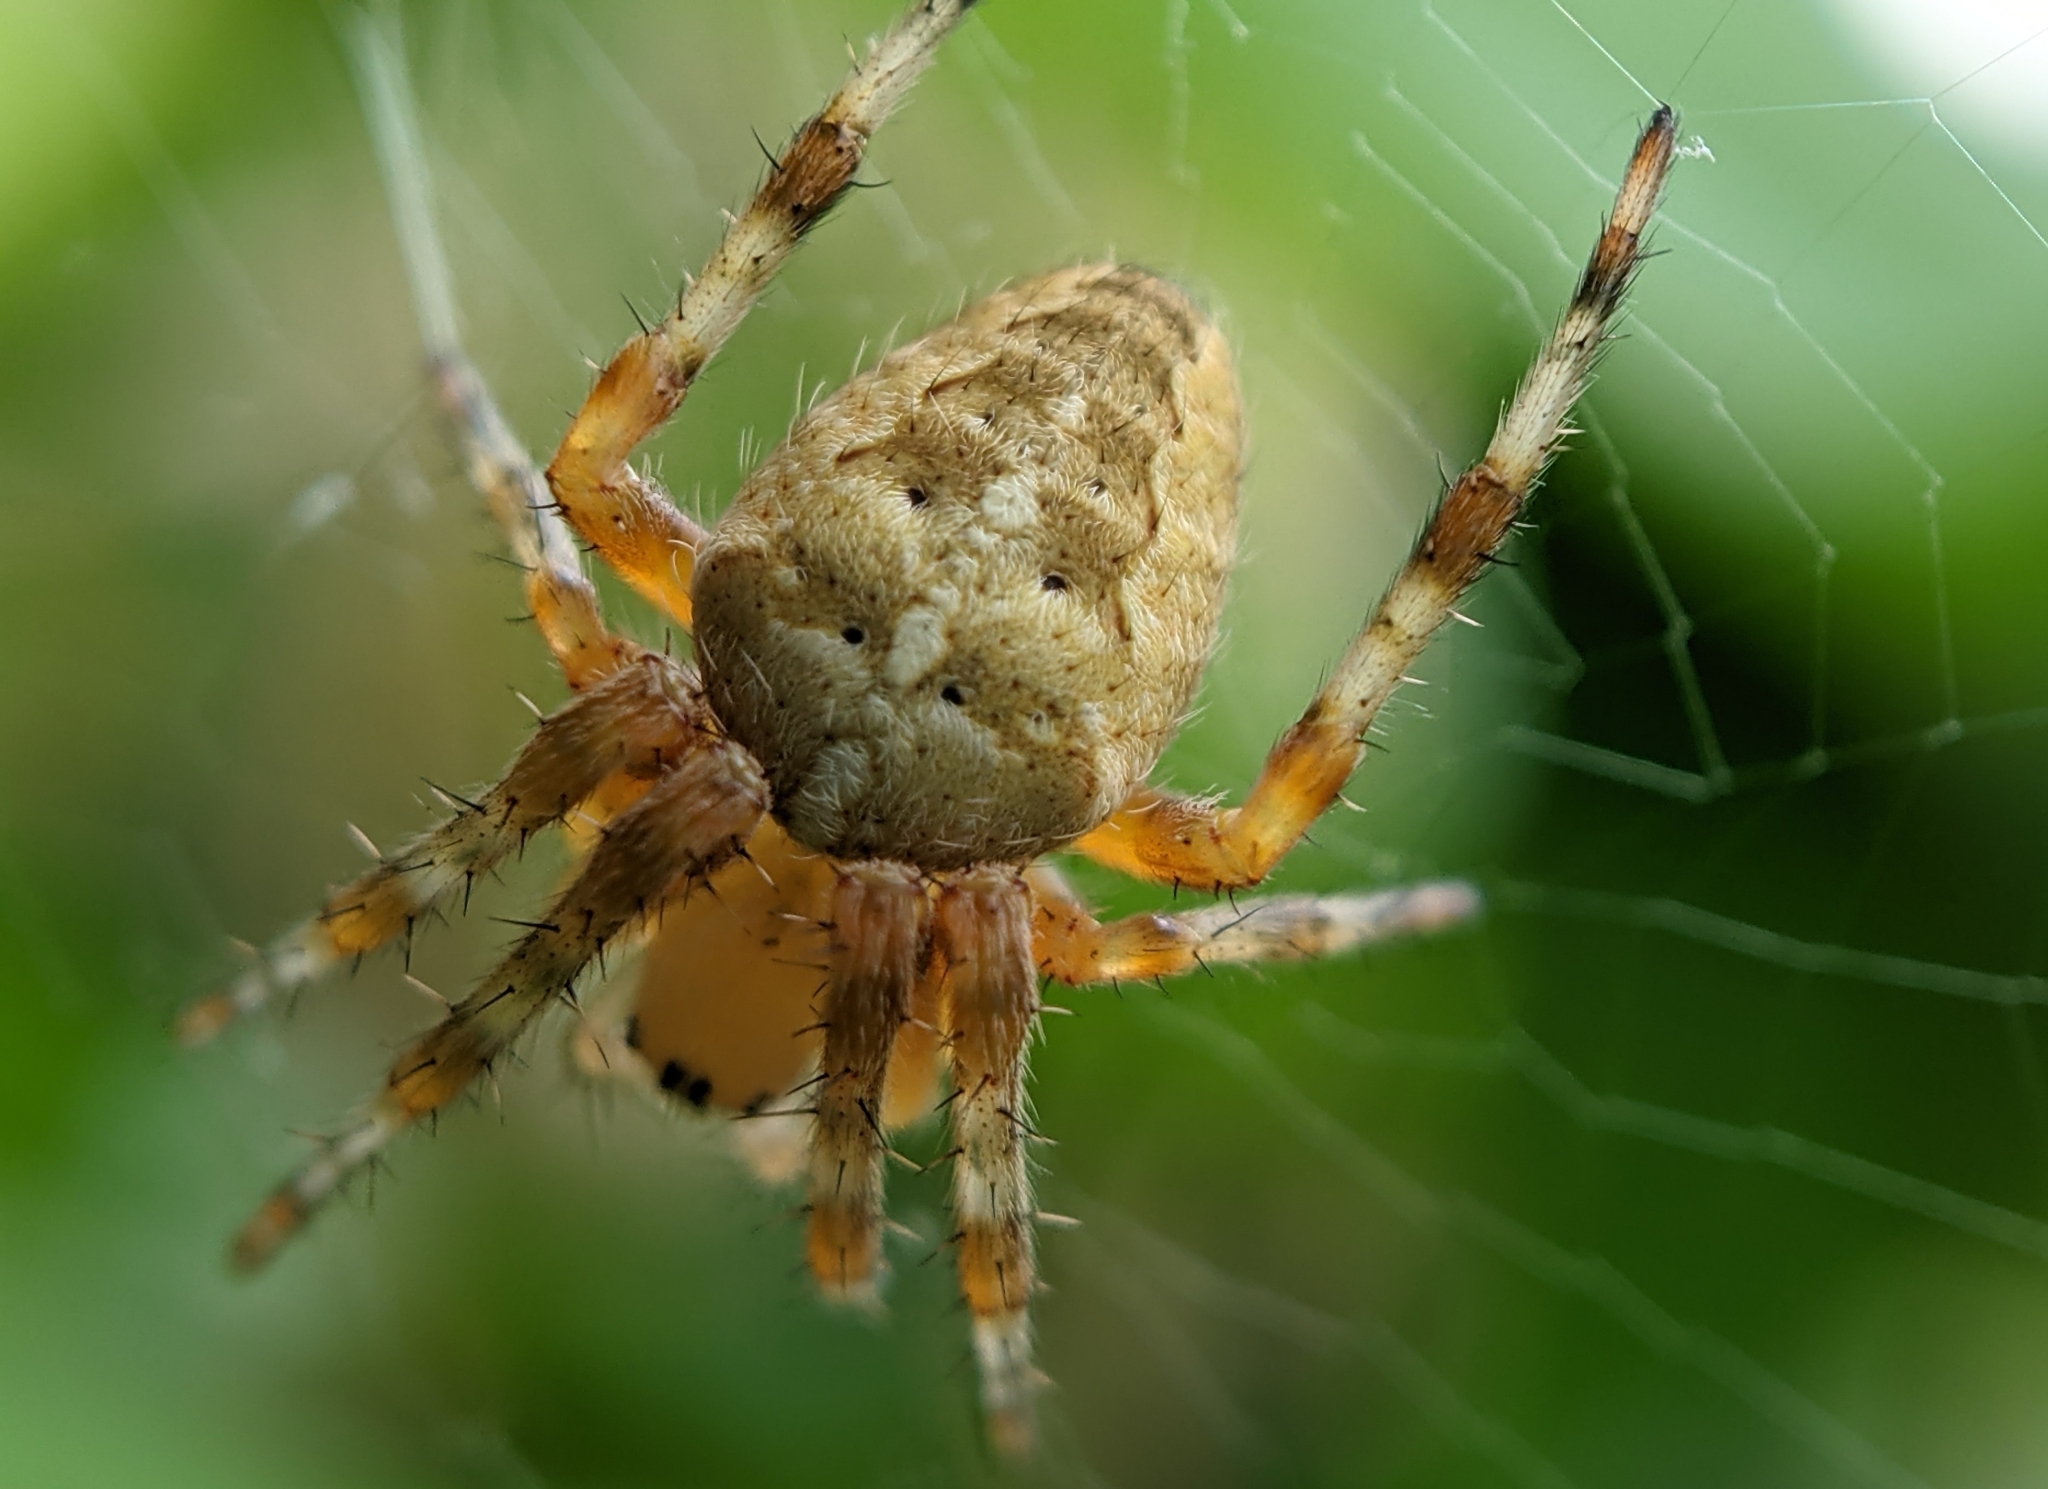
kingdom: Animalia
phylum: Arthropoda
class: Arachnida
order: Araneae
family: Araneidae
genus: Araneus
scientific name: Araneus diadematus
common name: Cross orbweaver
